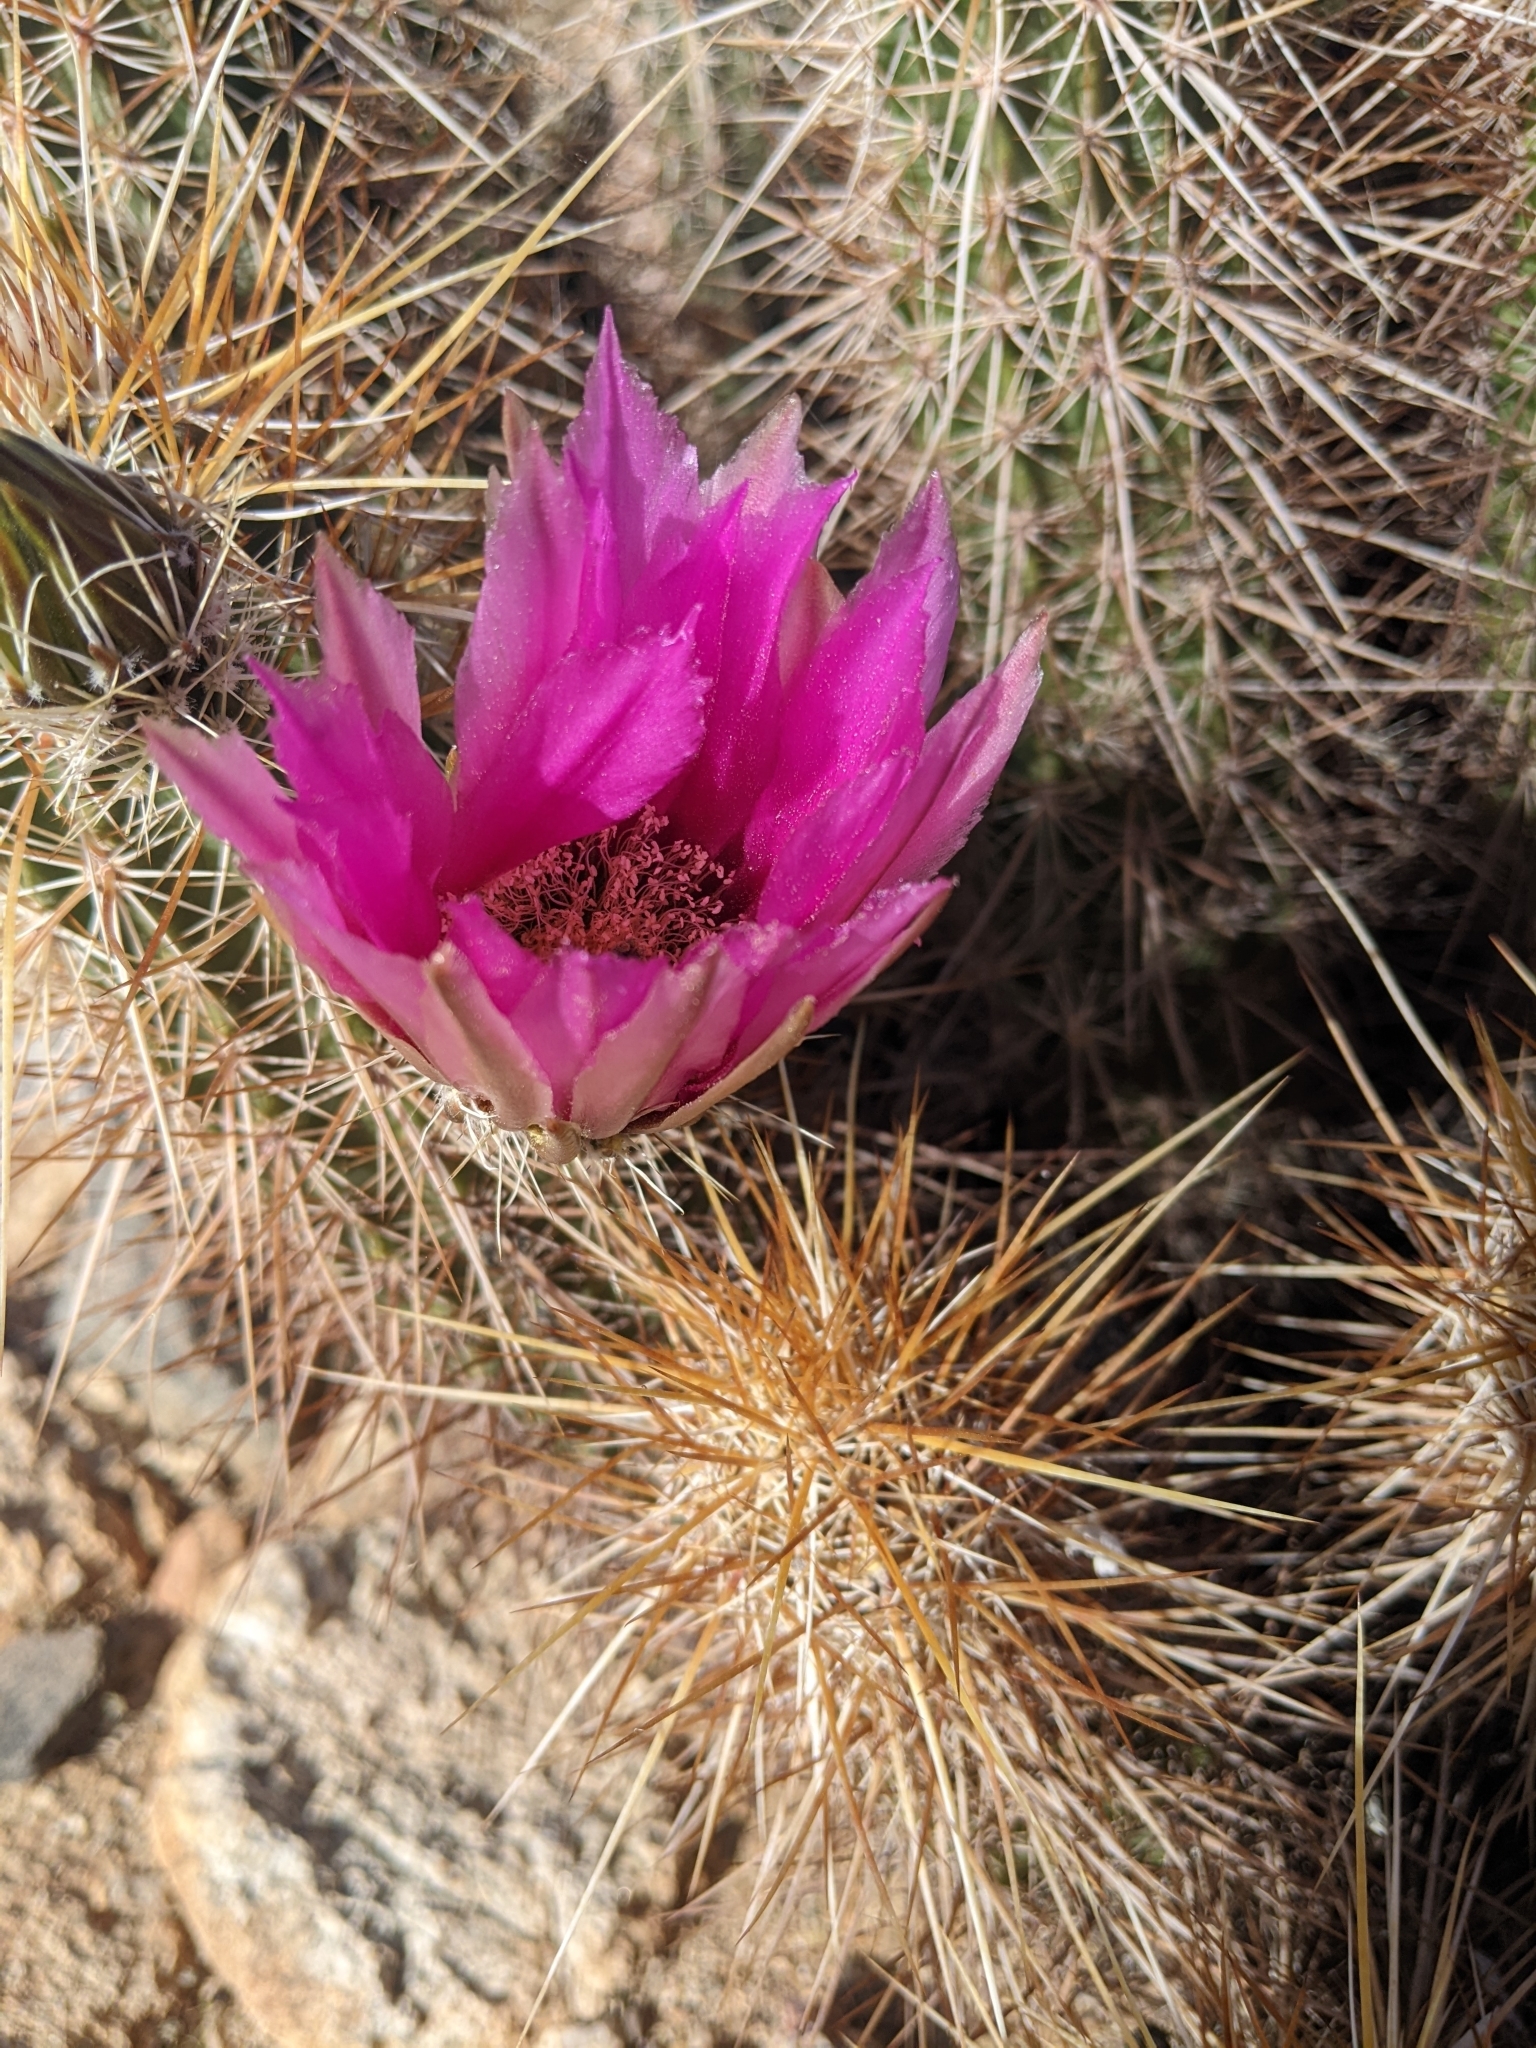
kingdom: Plantae
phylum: Tracheophyta
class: Magnoliopsida
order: Caryophyllales
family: Cactaceae
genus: Echinocereus
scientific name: Echinocereus engelmannii
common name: Engelmann's hedgehog cactus
